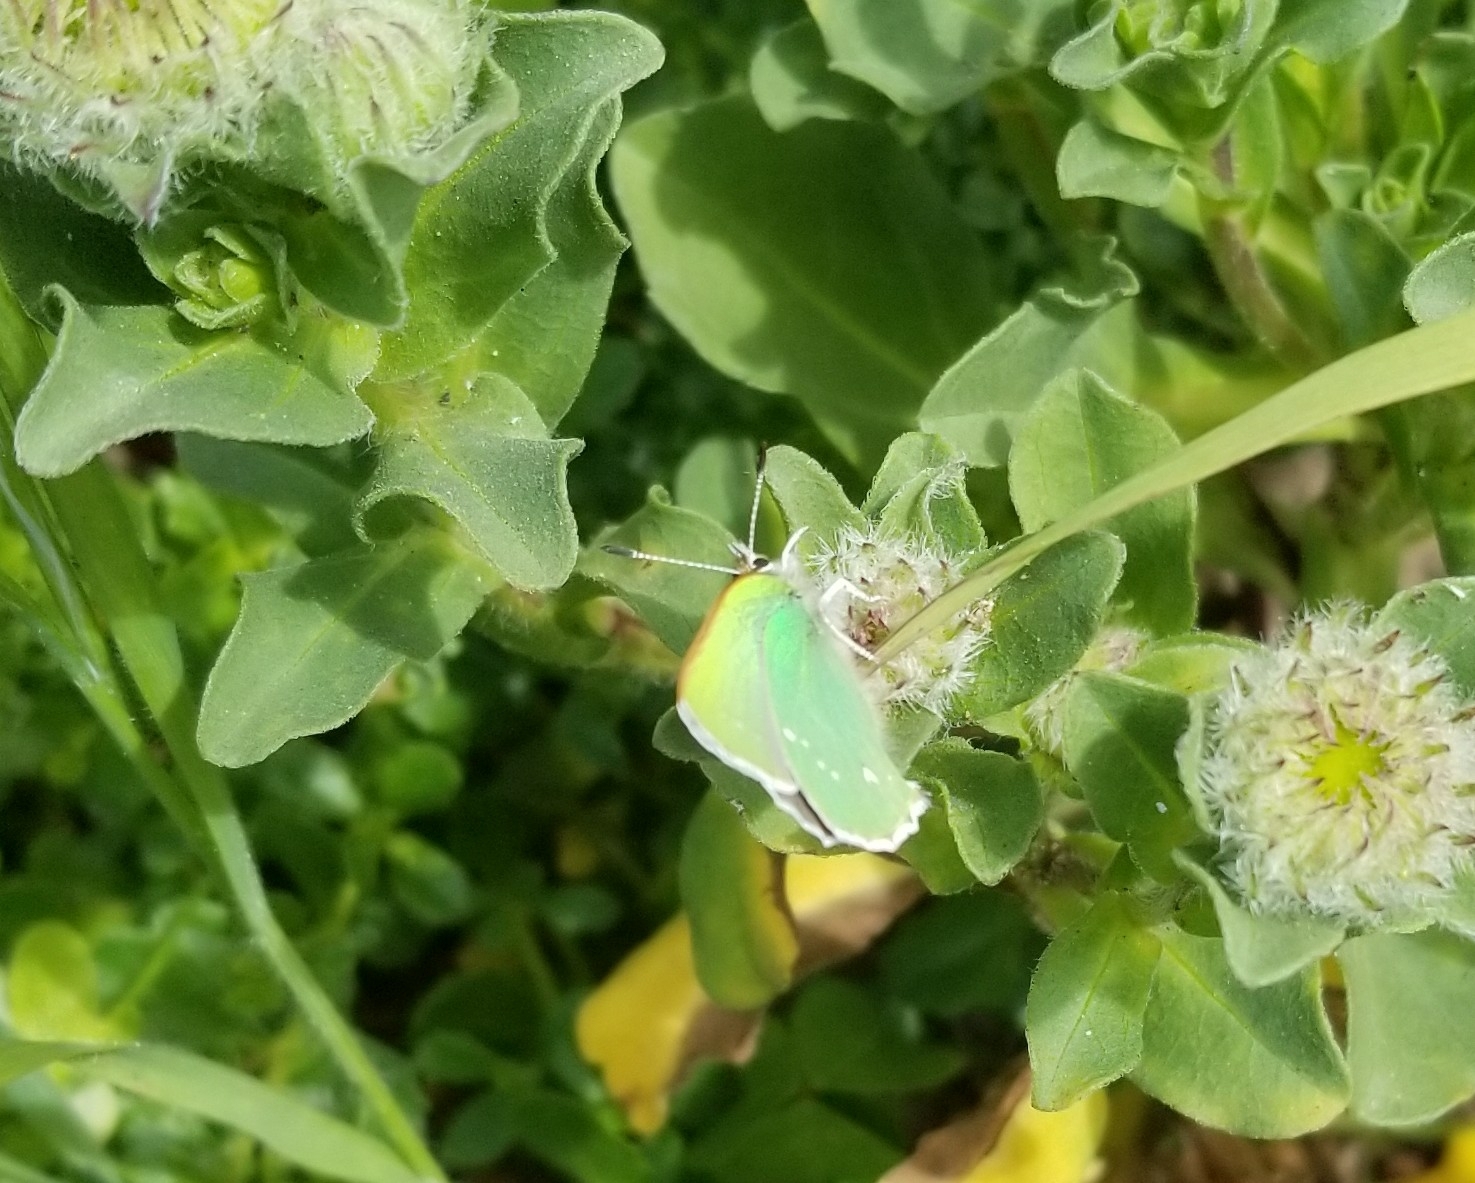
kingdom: Animalia
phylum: Arthropoda
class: Insecta
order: Lepidoptera
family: Lycaenidae
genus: Callophrys
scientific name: Callophrys viridis
